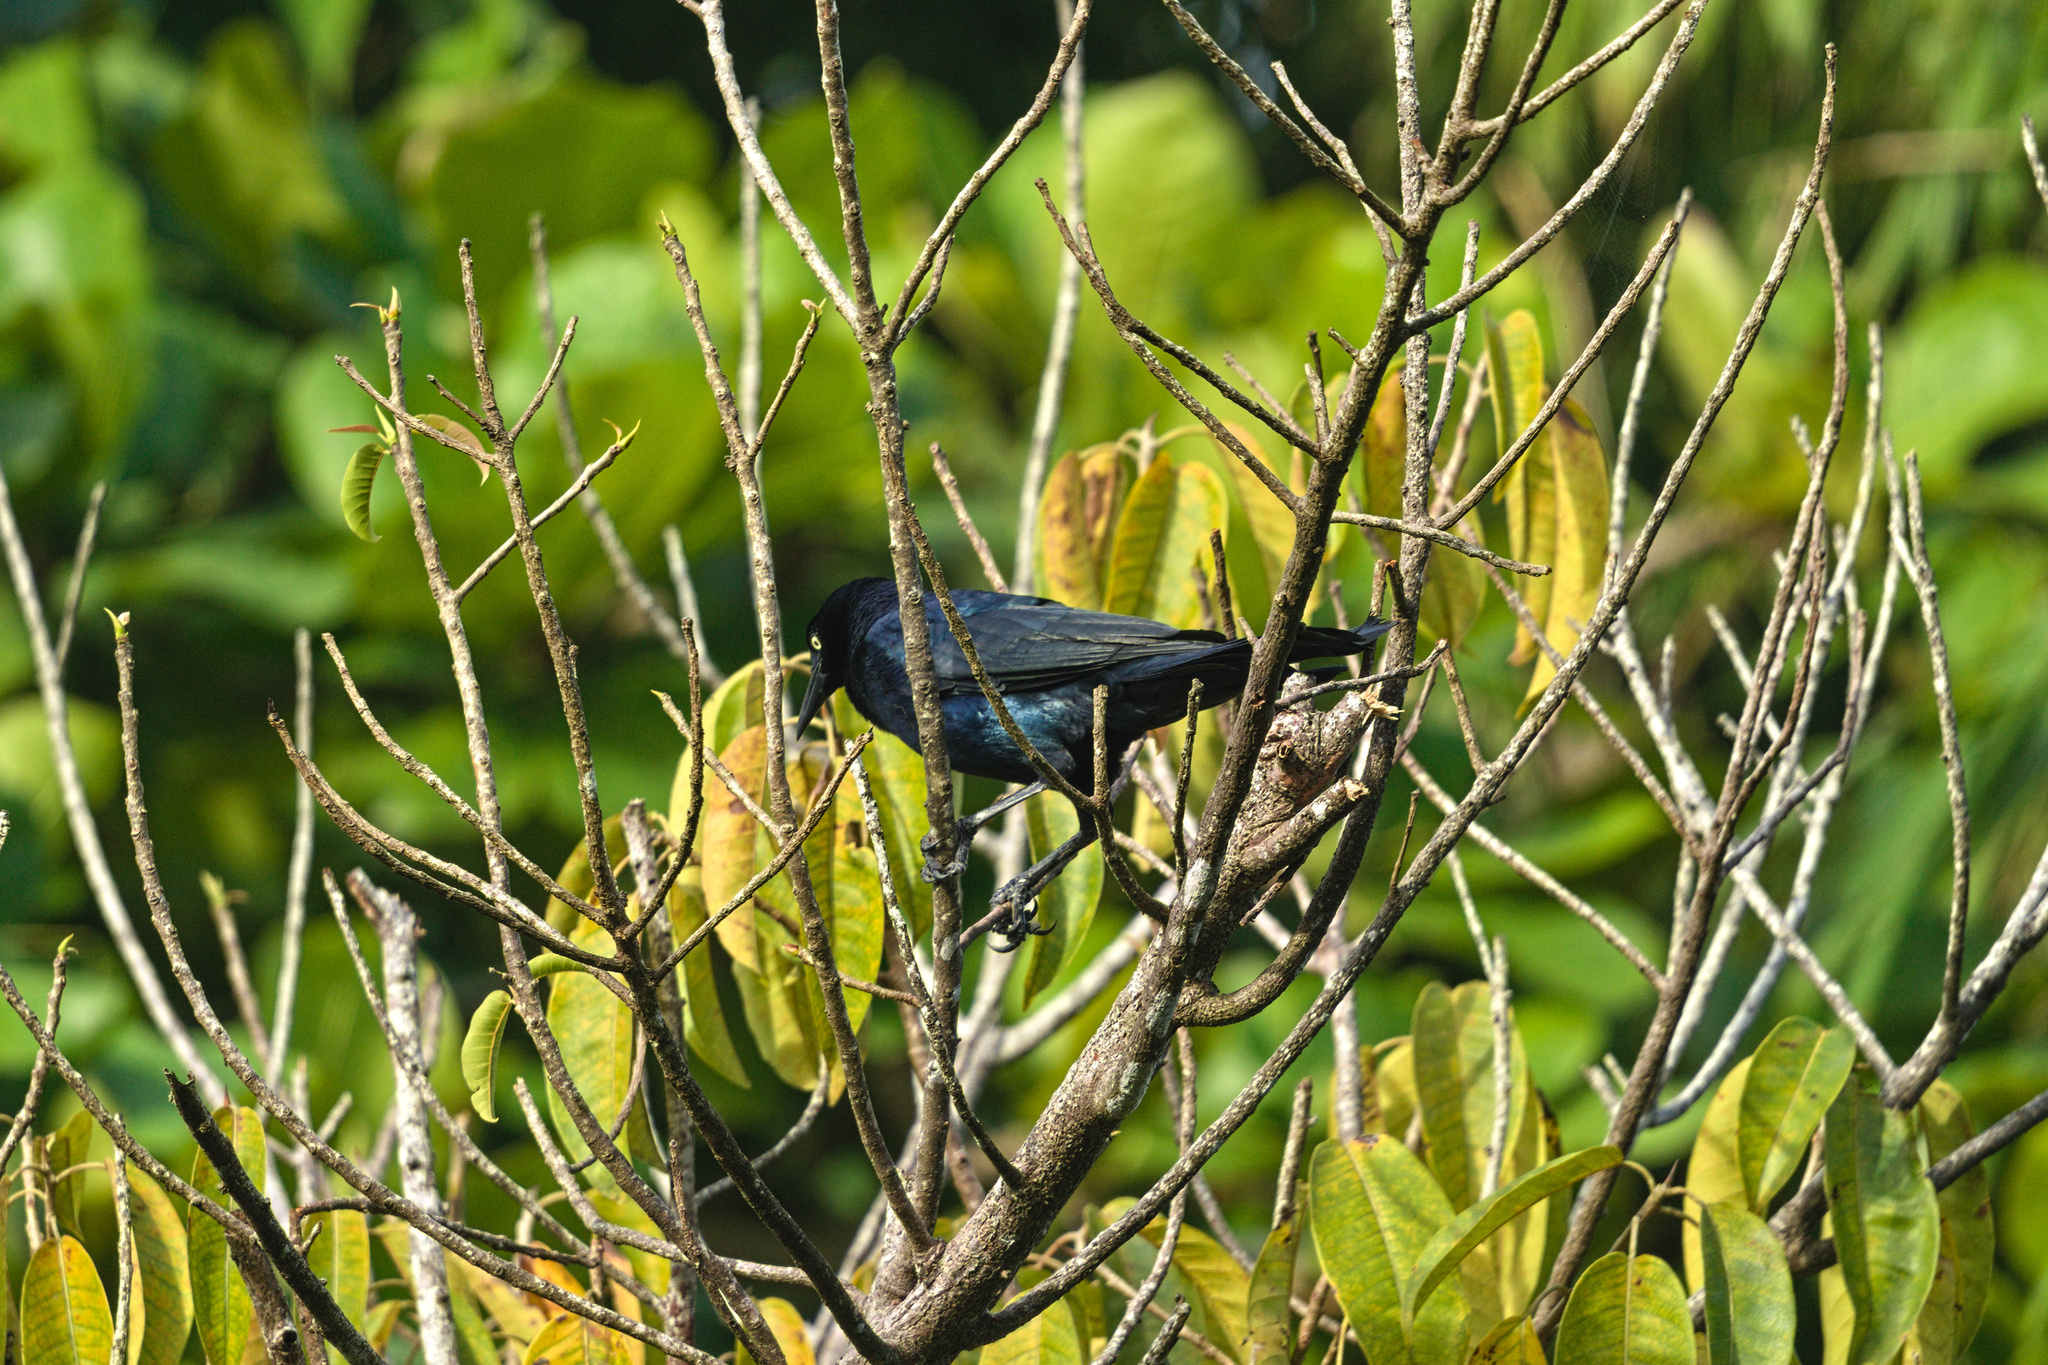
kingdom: Animalia
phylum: Chordata
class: Aves
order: Passeriformes
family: Icteridae
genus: Quiscalus
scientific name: Quiscalus mexicanus
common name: Great-tailed grackle
